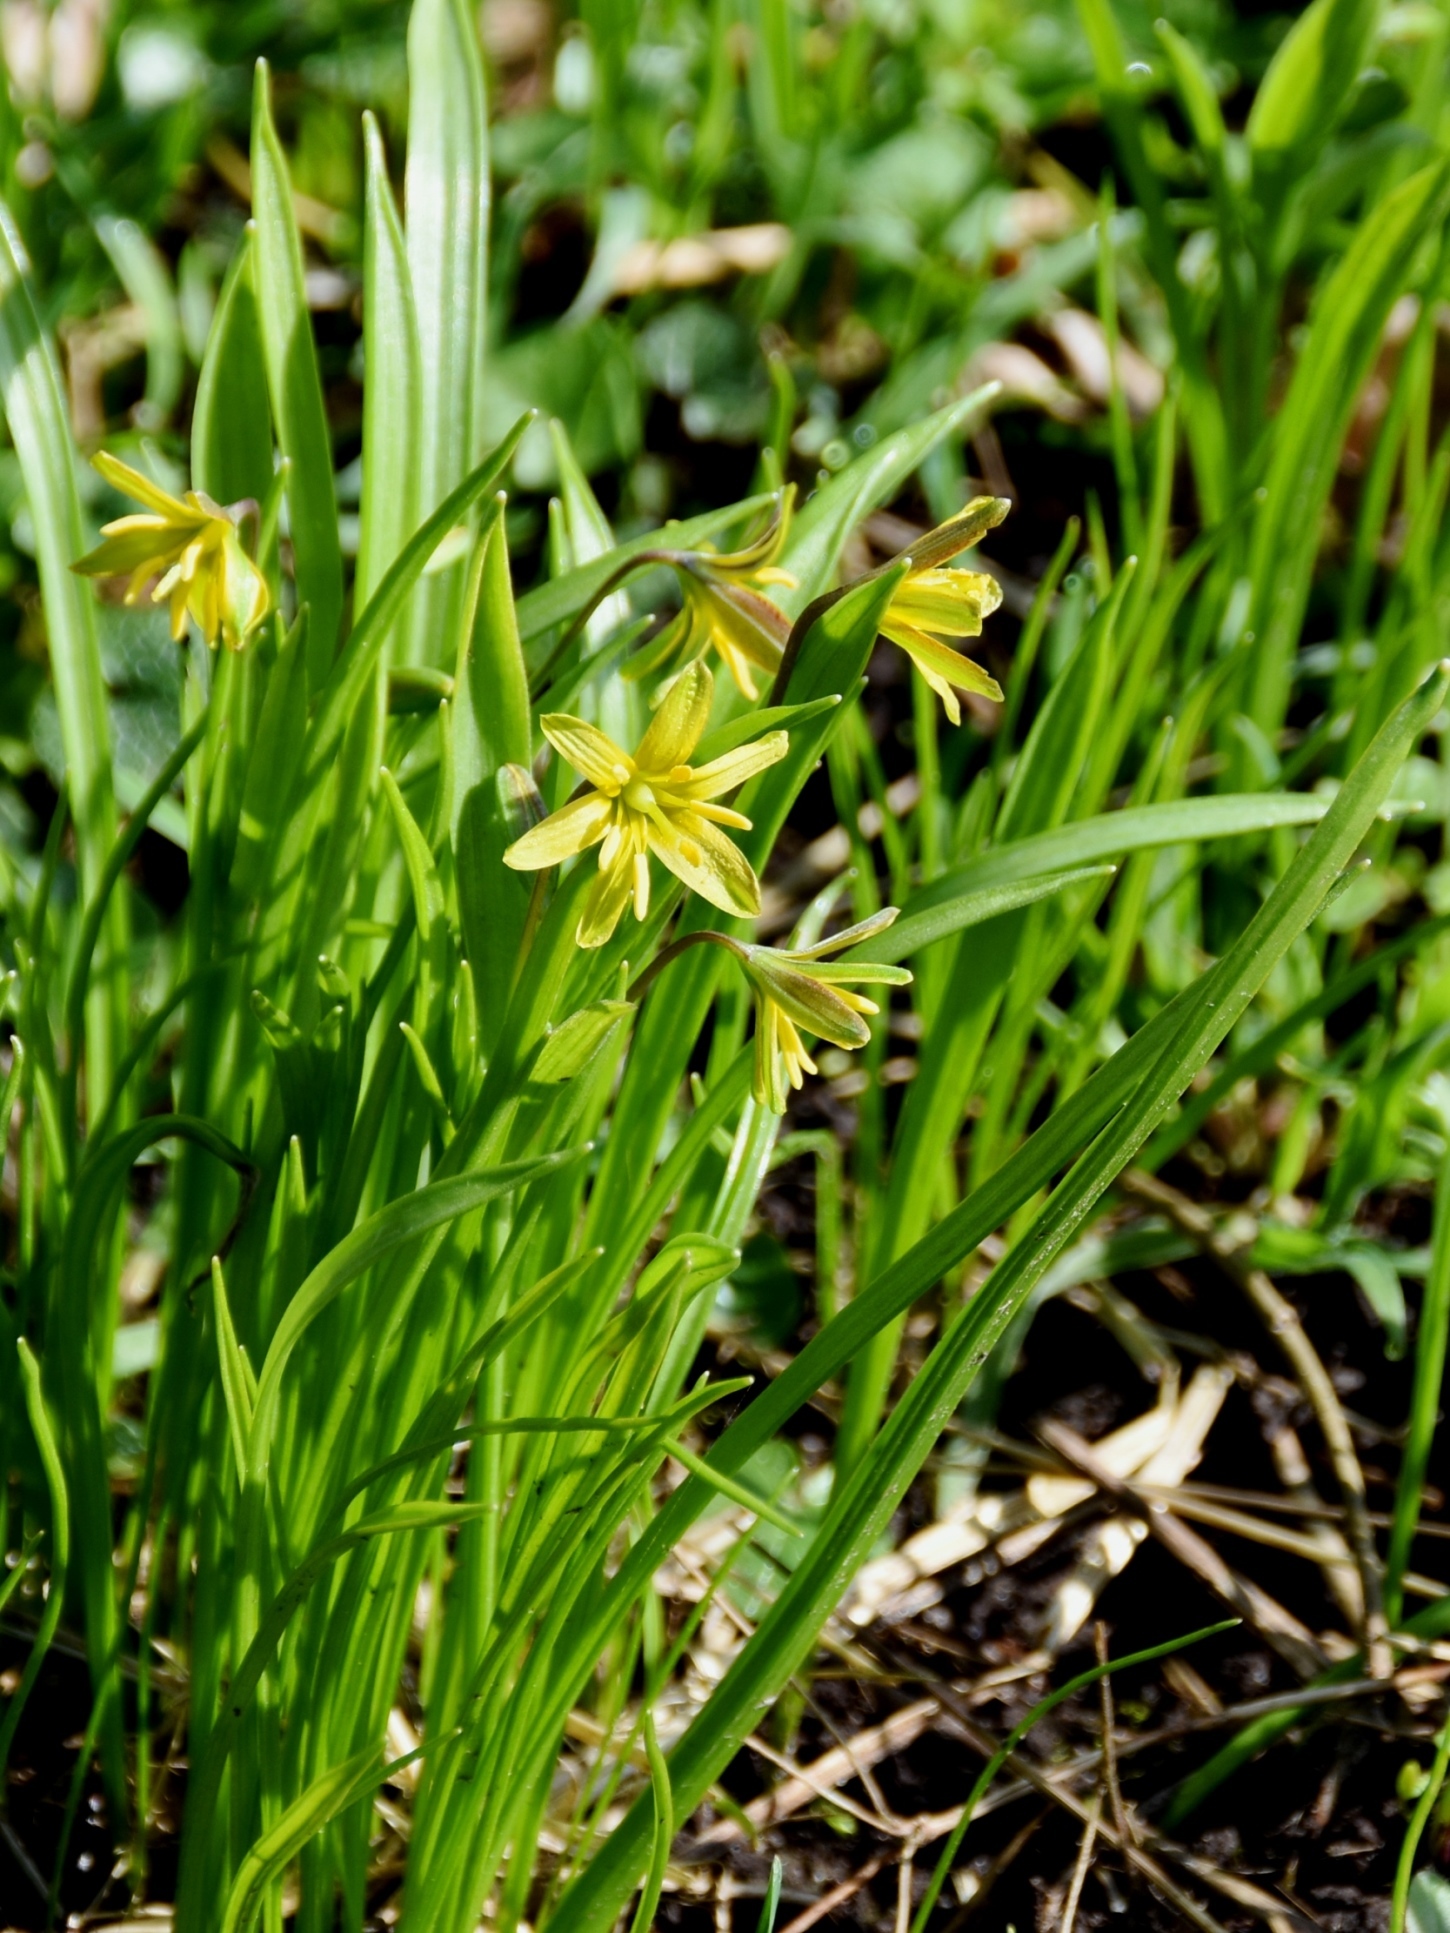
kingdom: Plantae
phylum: Tracheophyta
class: Liliopsida
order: Liliales
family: Liliaceae
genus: Gagea
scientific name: Gagea lutea
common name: Yellow star-of-bethlehem
